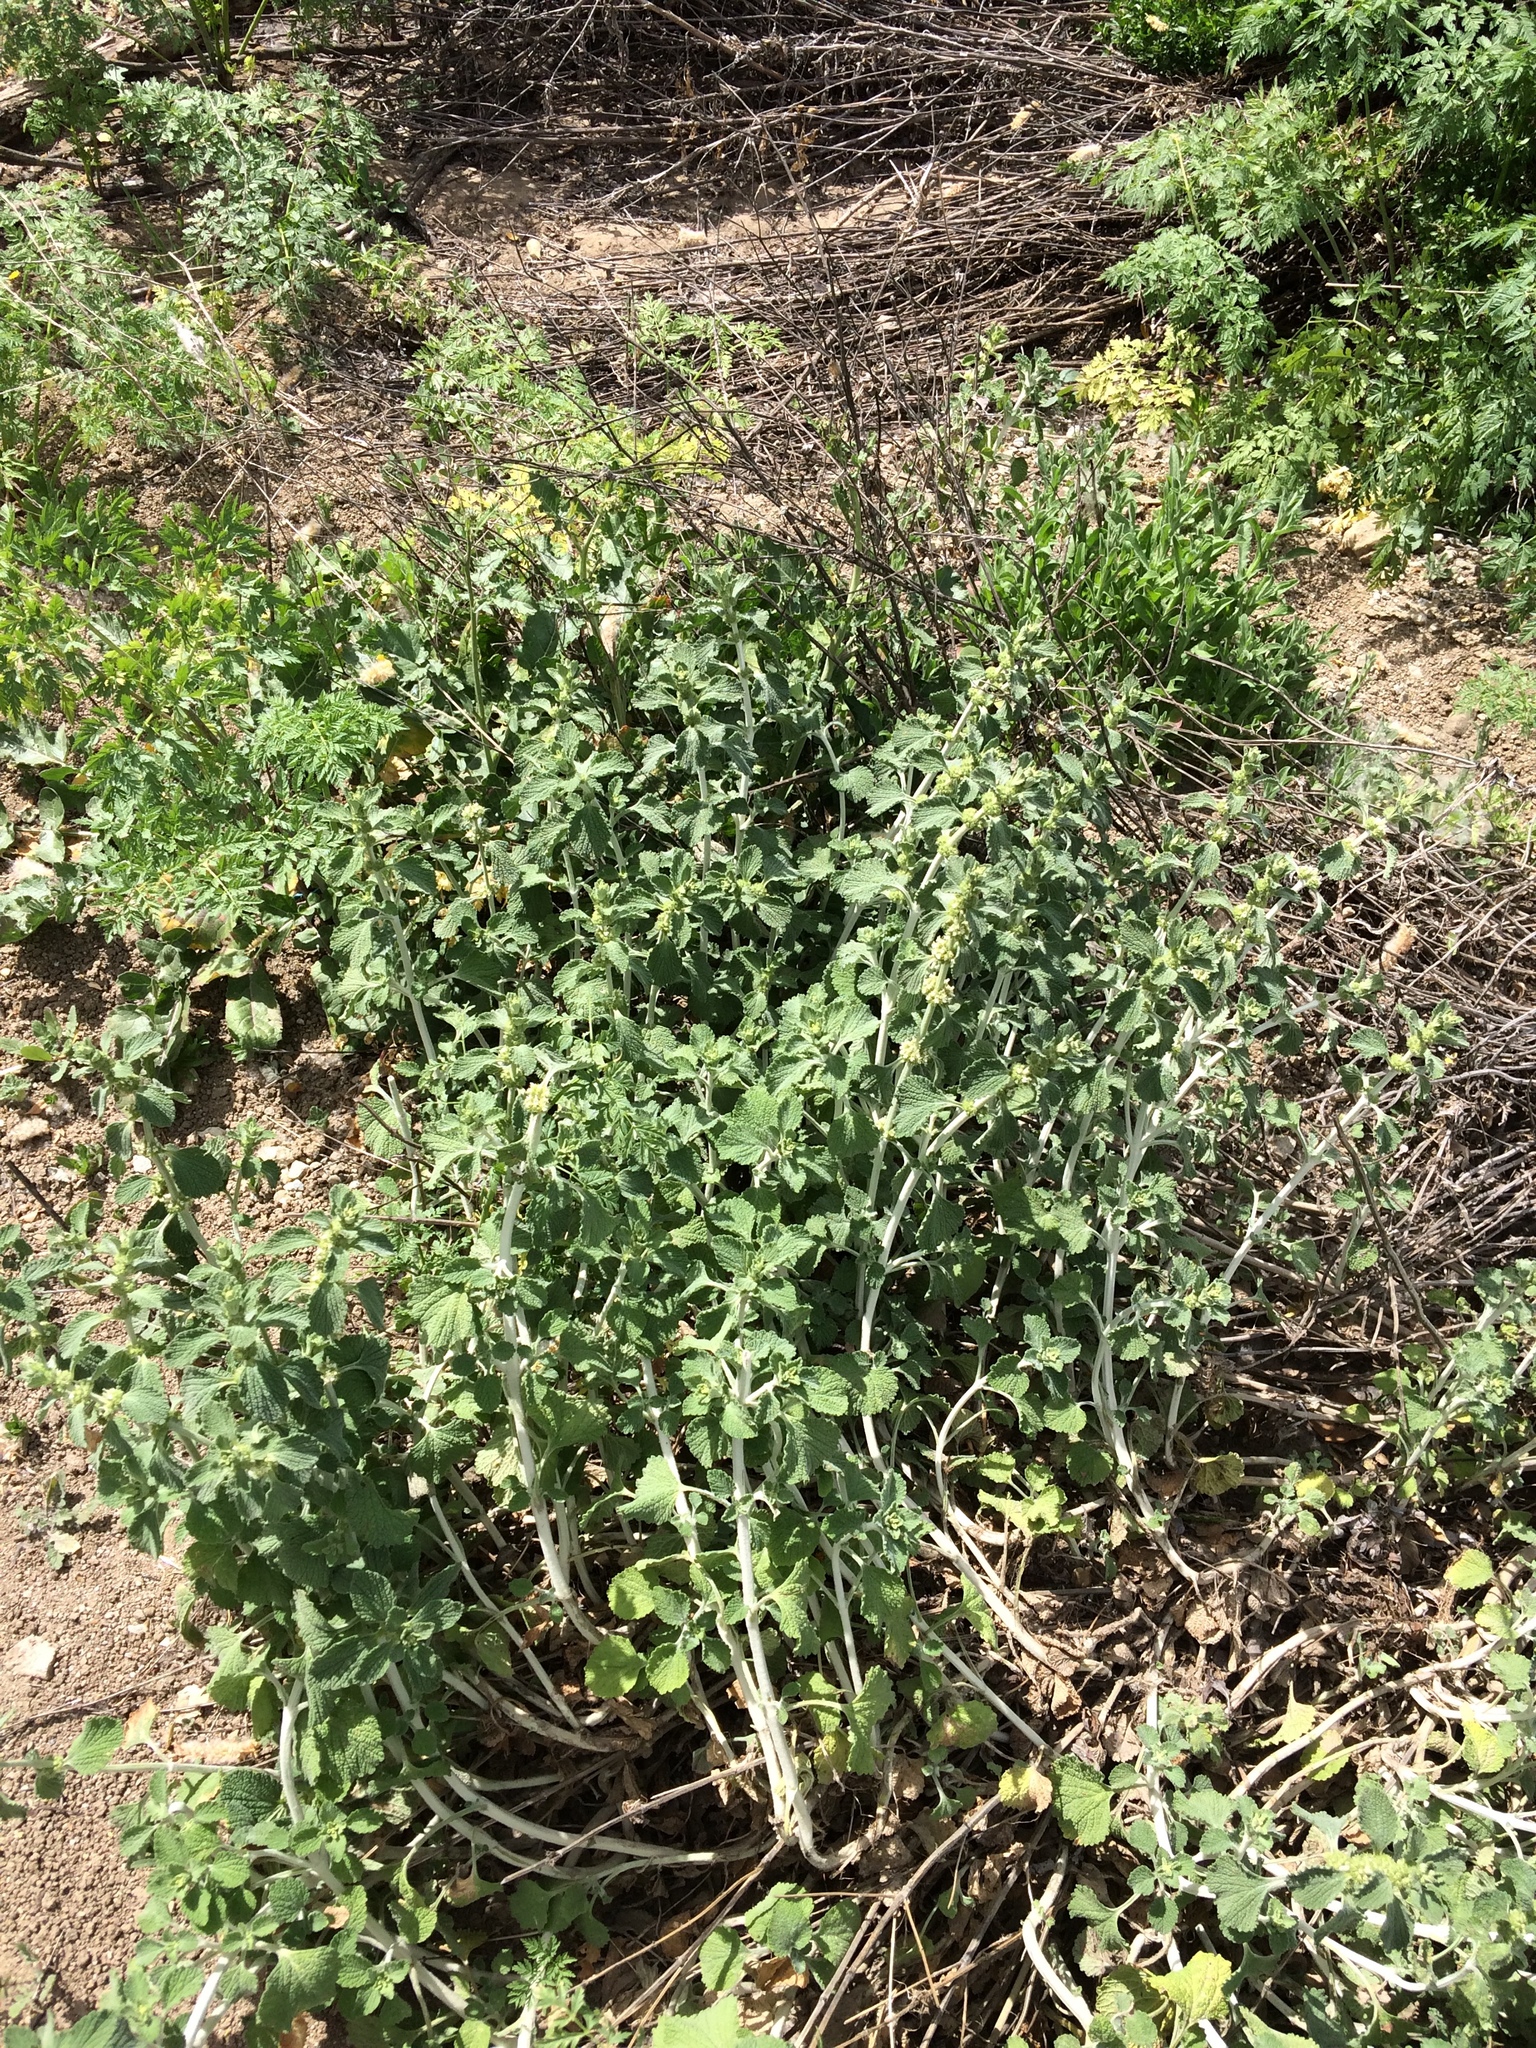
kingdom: Plantae
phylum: Tracheophyta
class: Magnoliopsida
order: Lamiales
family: Lamiaceae
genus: Marrubium
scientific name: Marrubium vulgare
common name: Horehound
